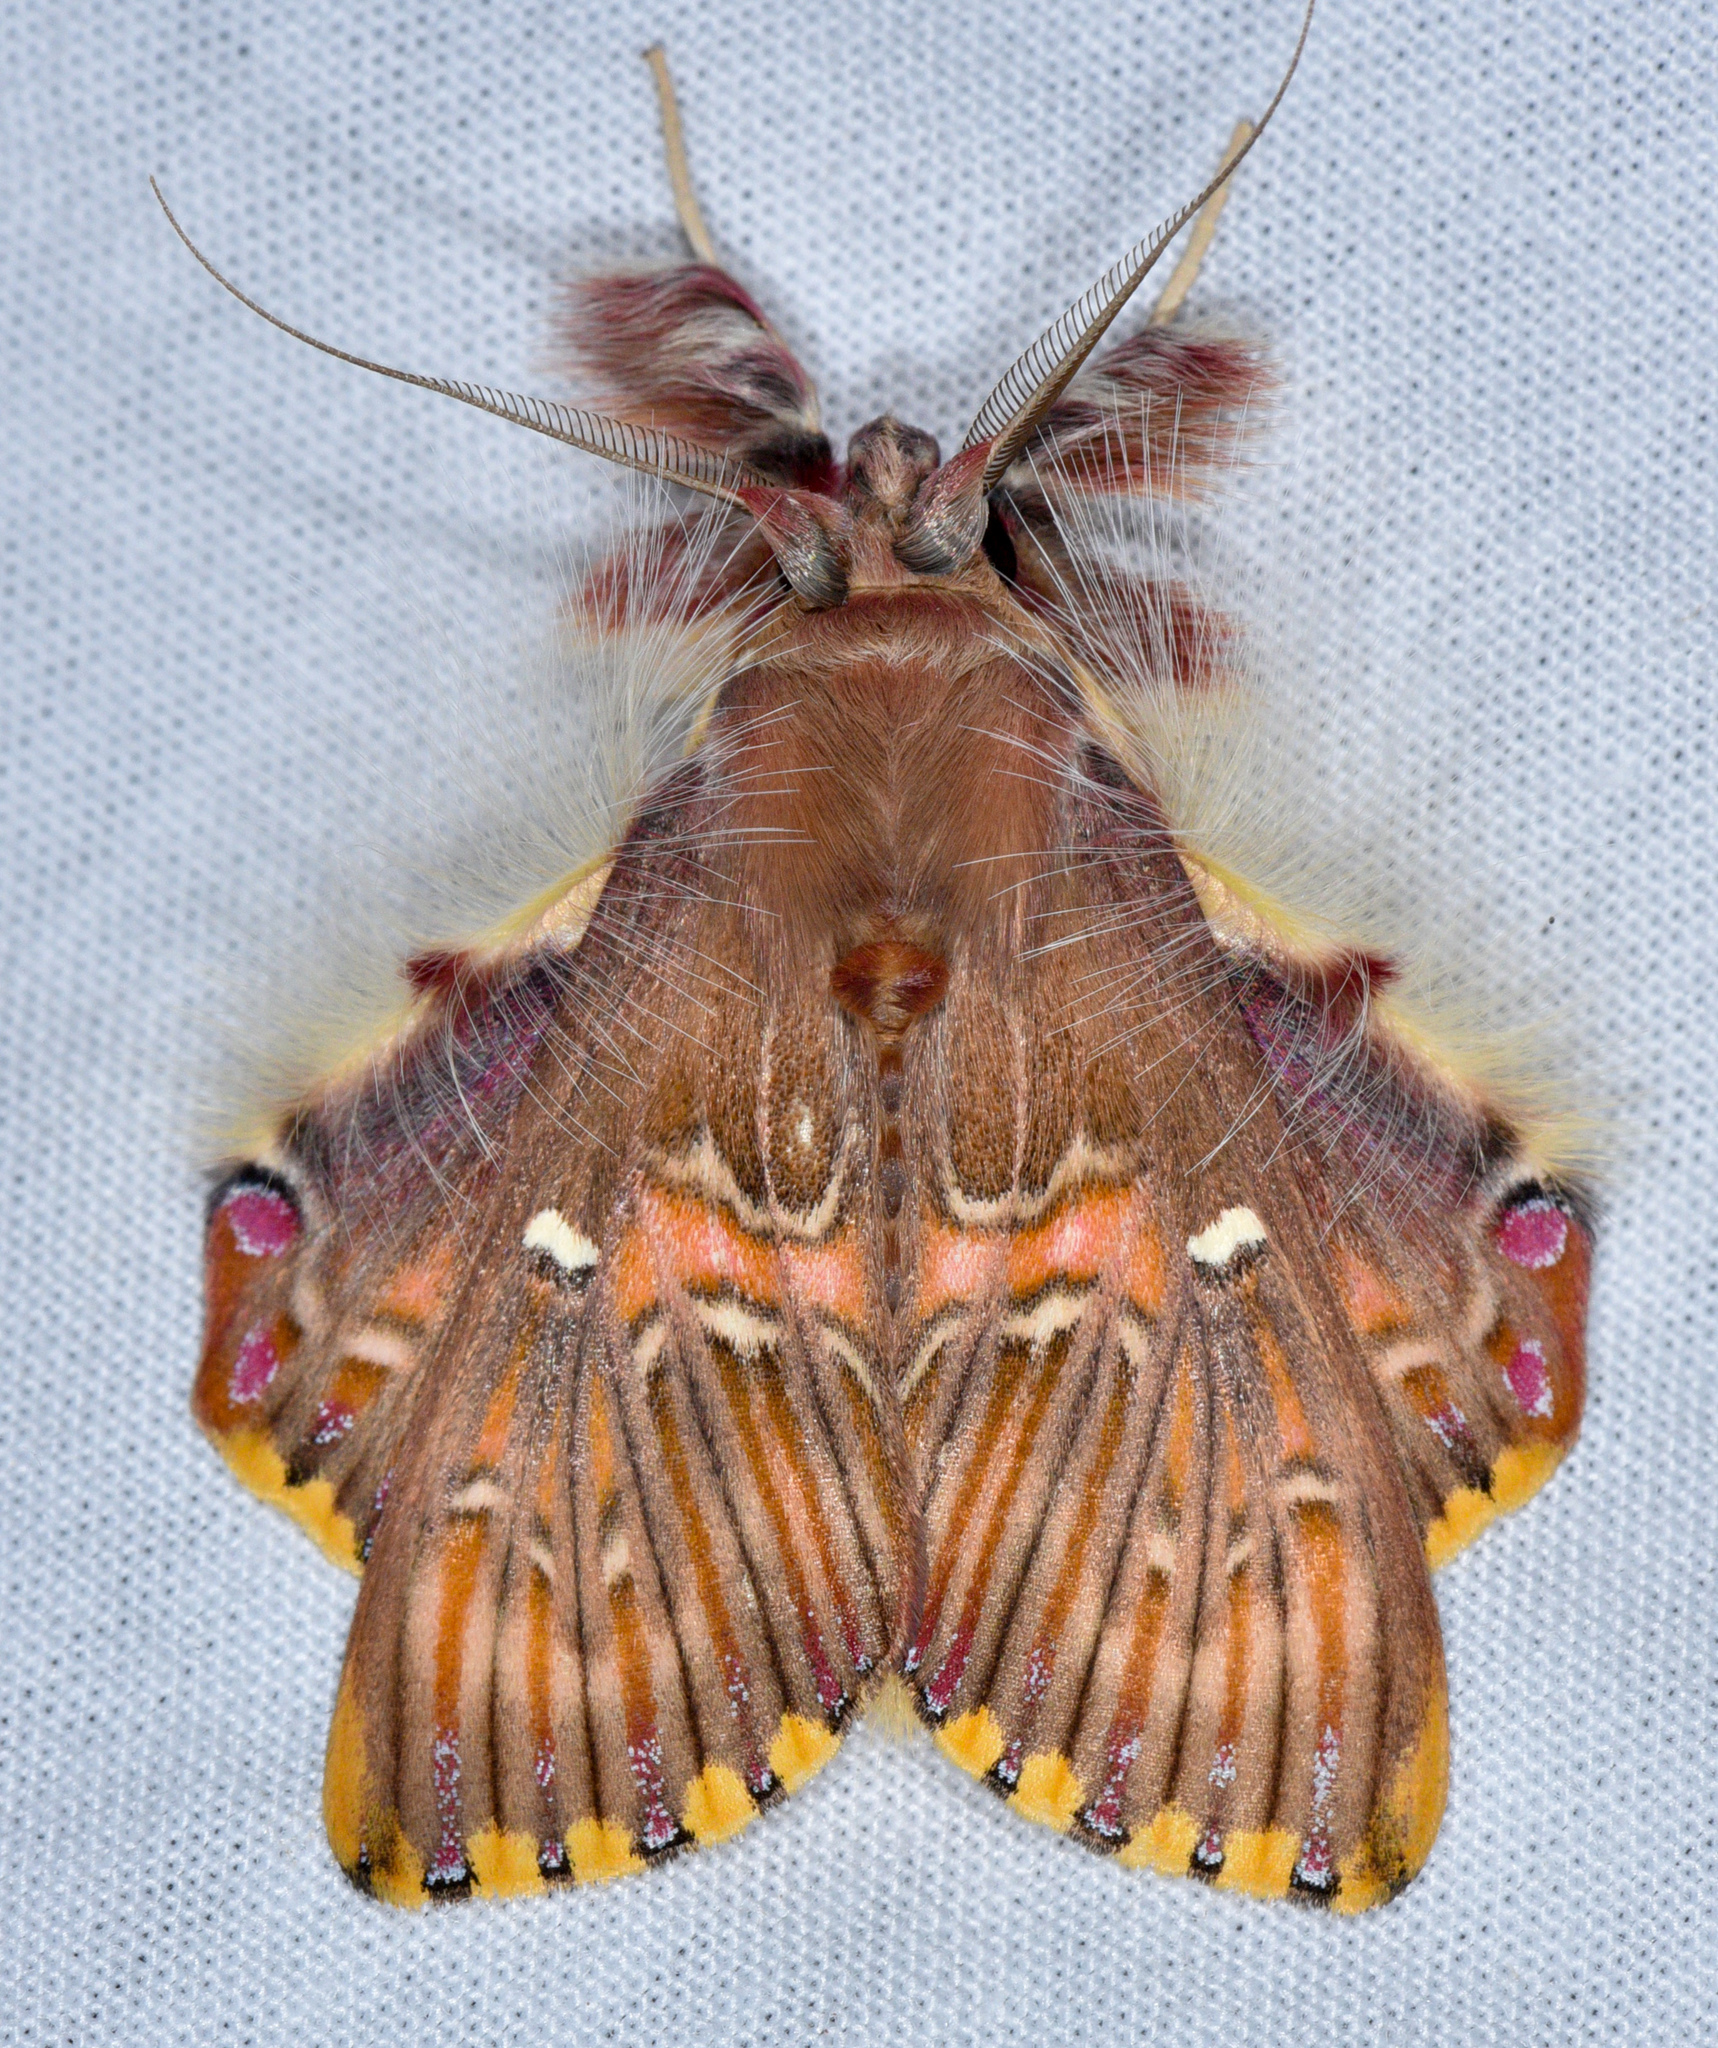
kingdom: Animalia
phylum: Arthropoda
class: Insecta
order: Lepidoptera
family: Erebidae
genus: Sosxetra
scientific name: Sosxetra grata
